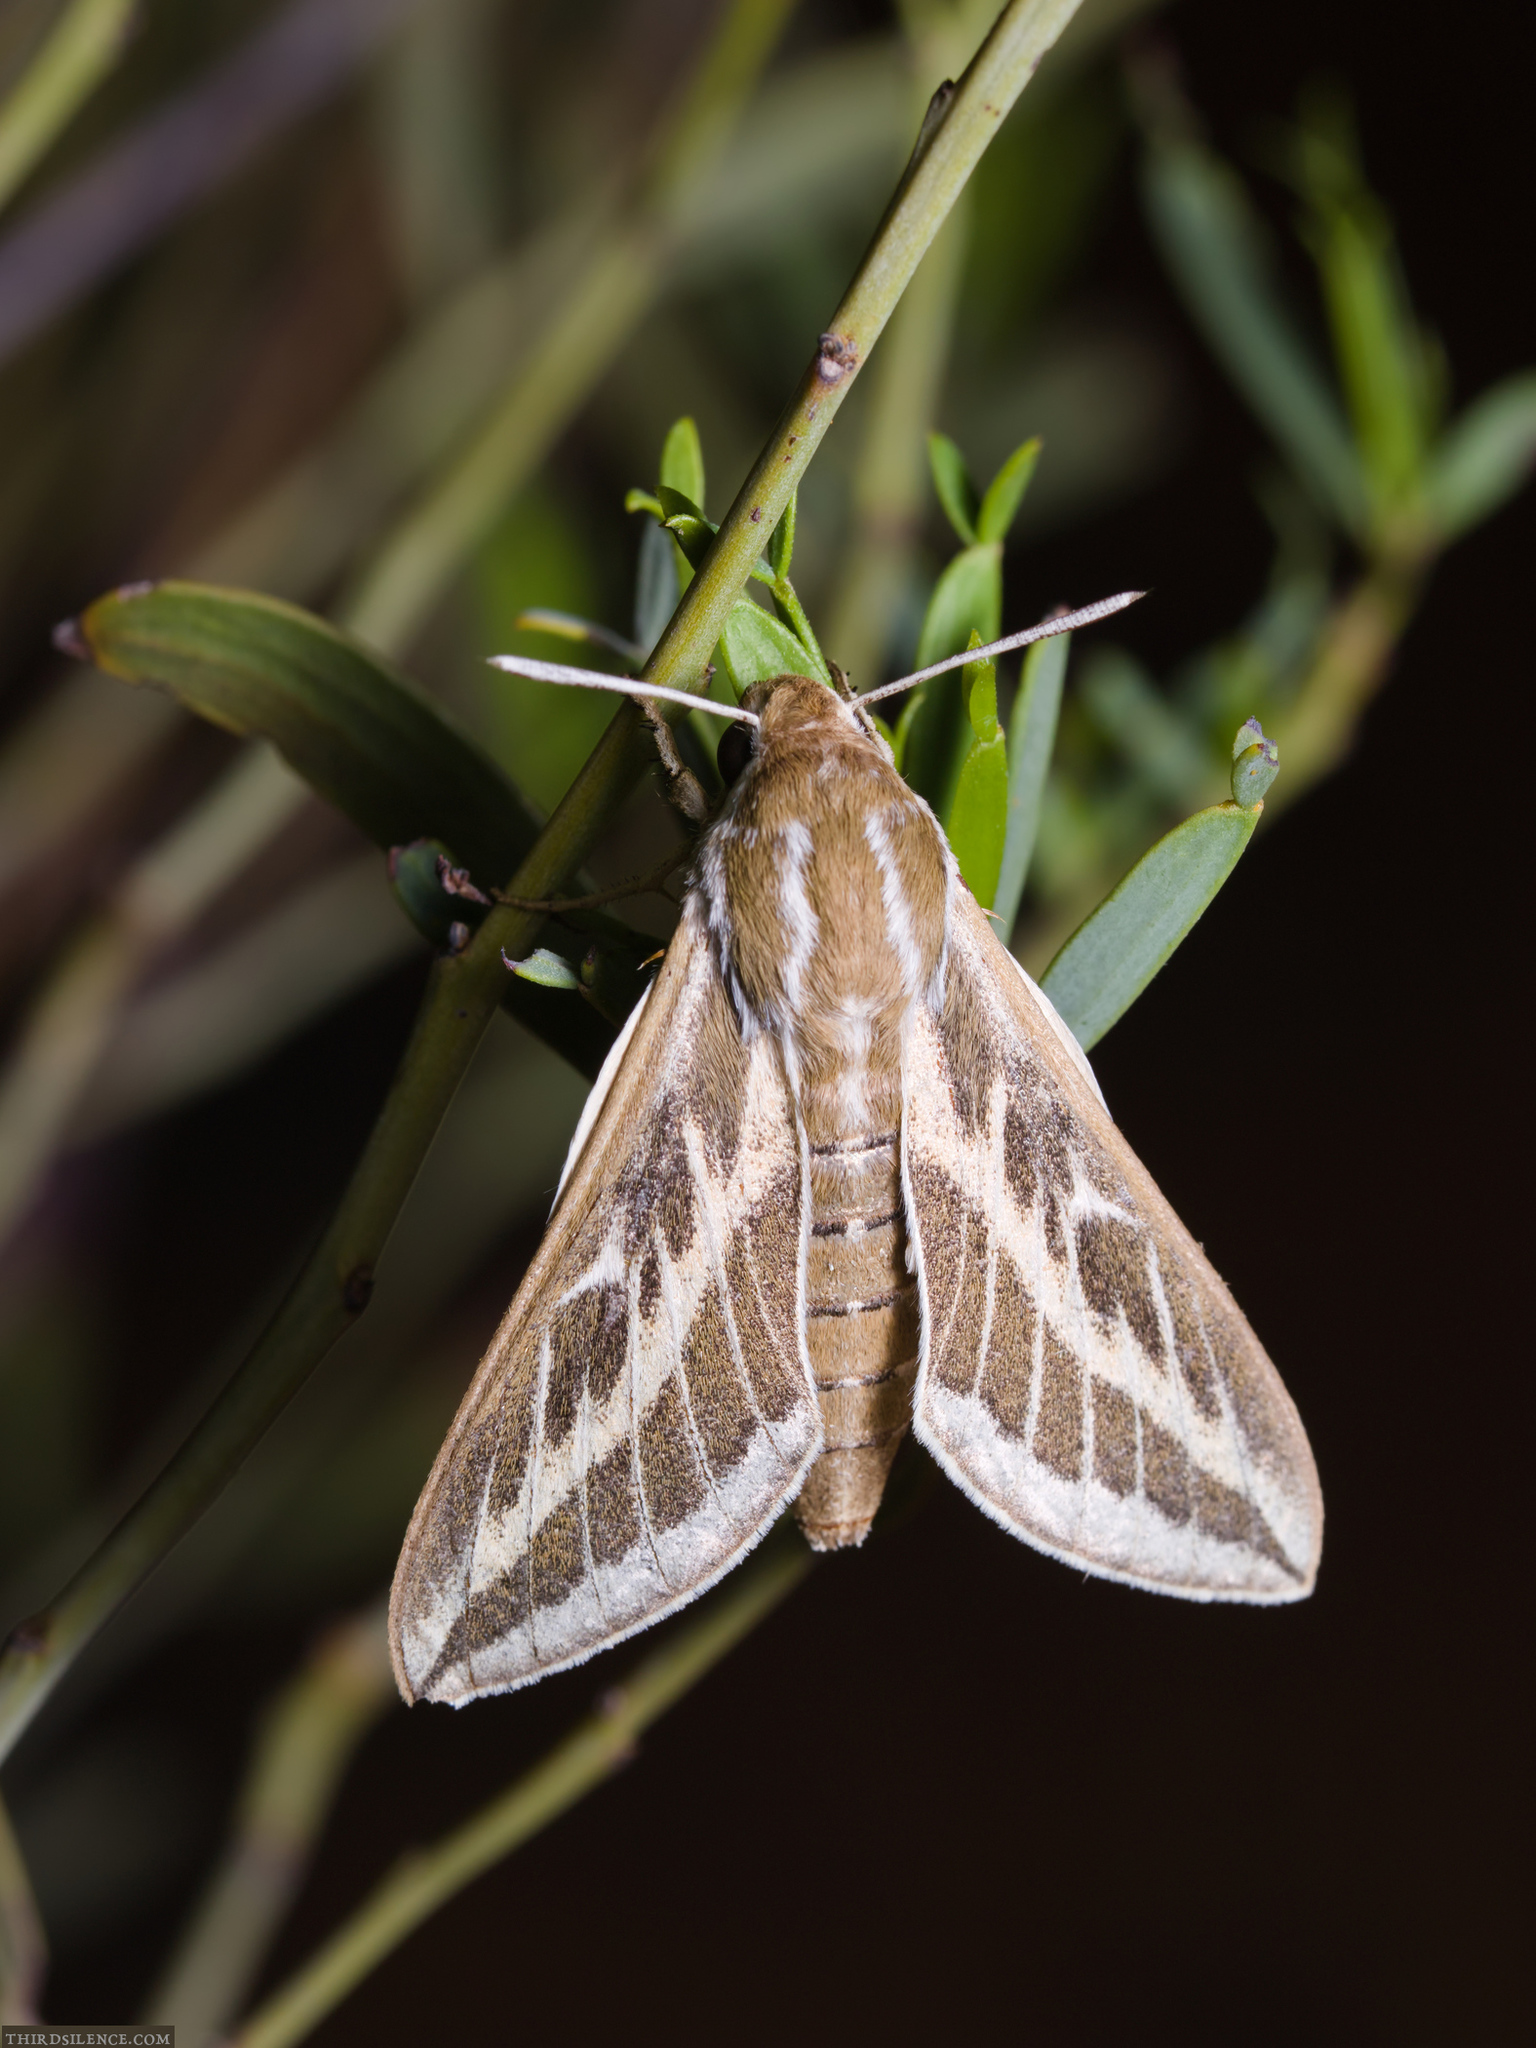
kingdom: Animalia
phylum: Arthropoda
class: Insecta
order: Lepidoptera
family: Sphingidae
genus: Hyles
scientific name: Hyles livornicoides
